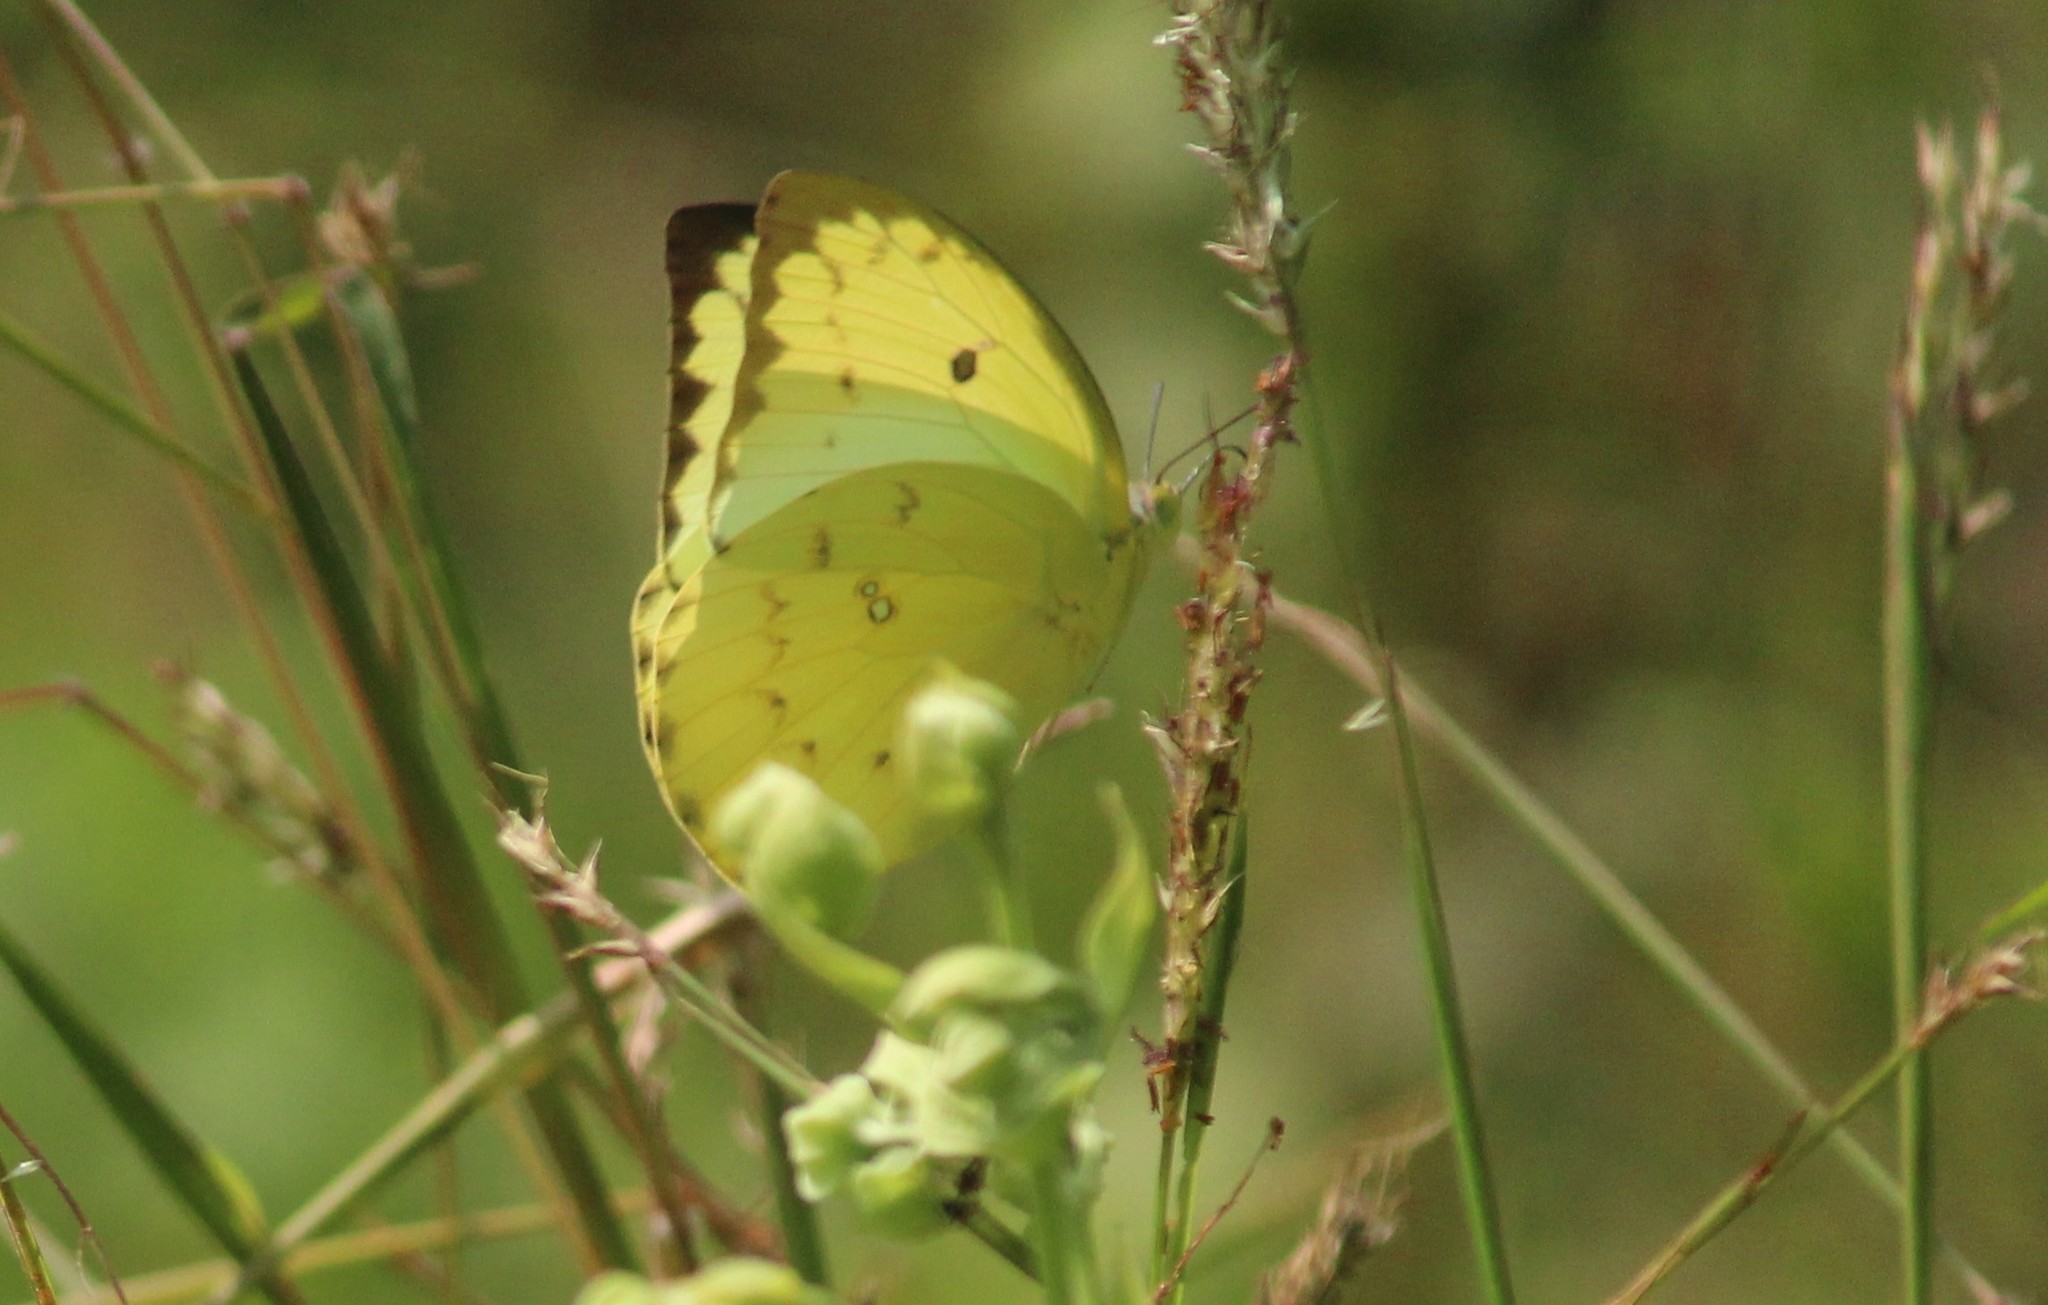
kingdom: Animalia
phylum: Arthropoda
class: Insecta
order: Lepidoptera
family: Pieridae
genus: Catopsilia
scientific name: Catopsilia pomona
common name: Common emigrant
